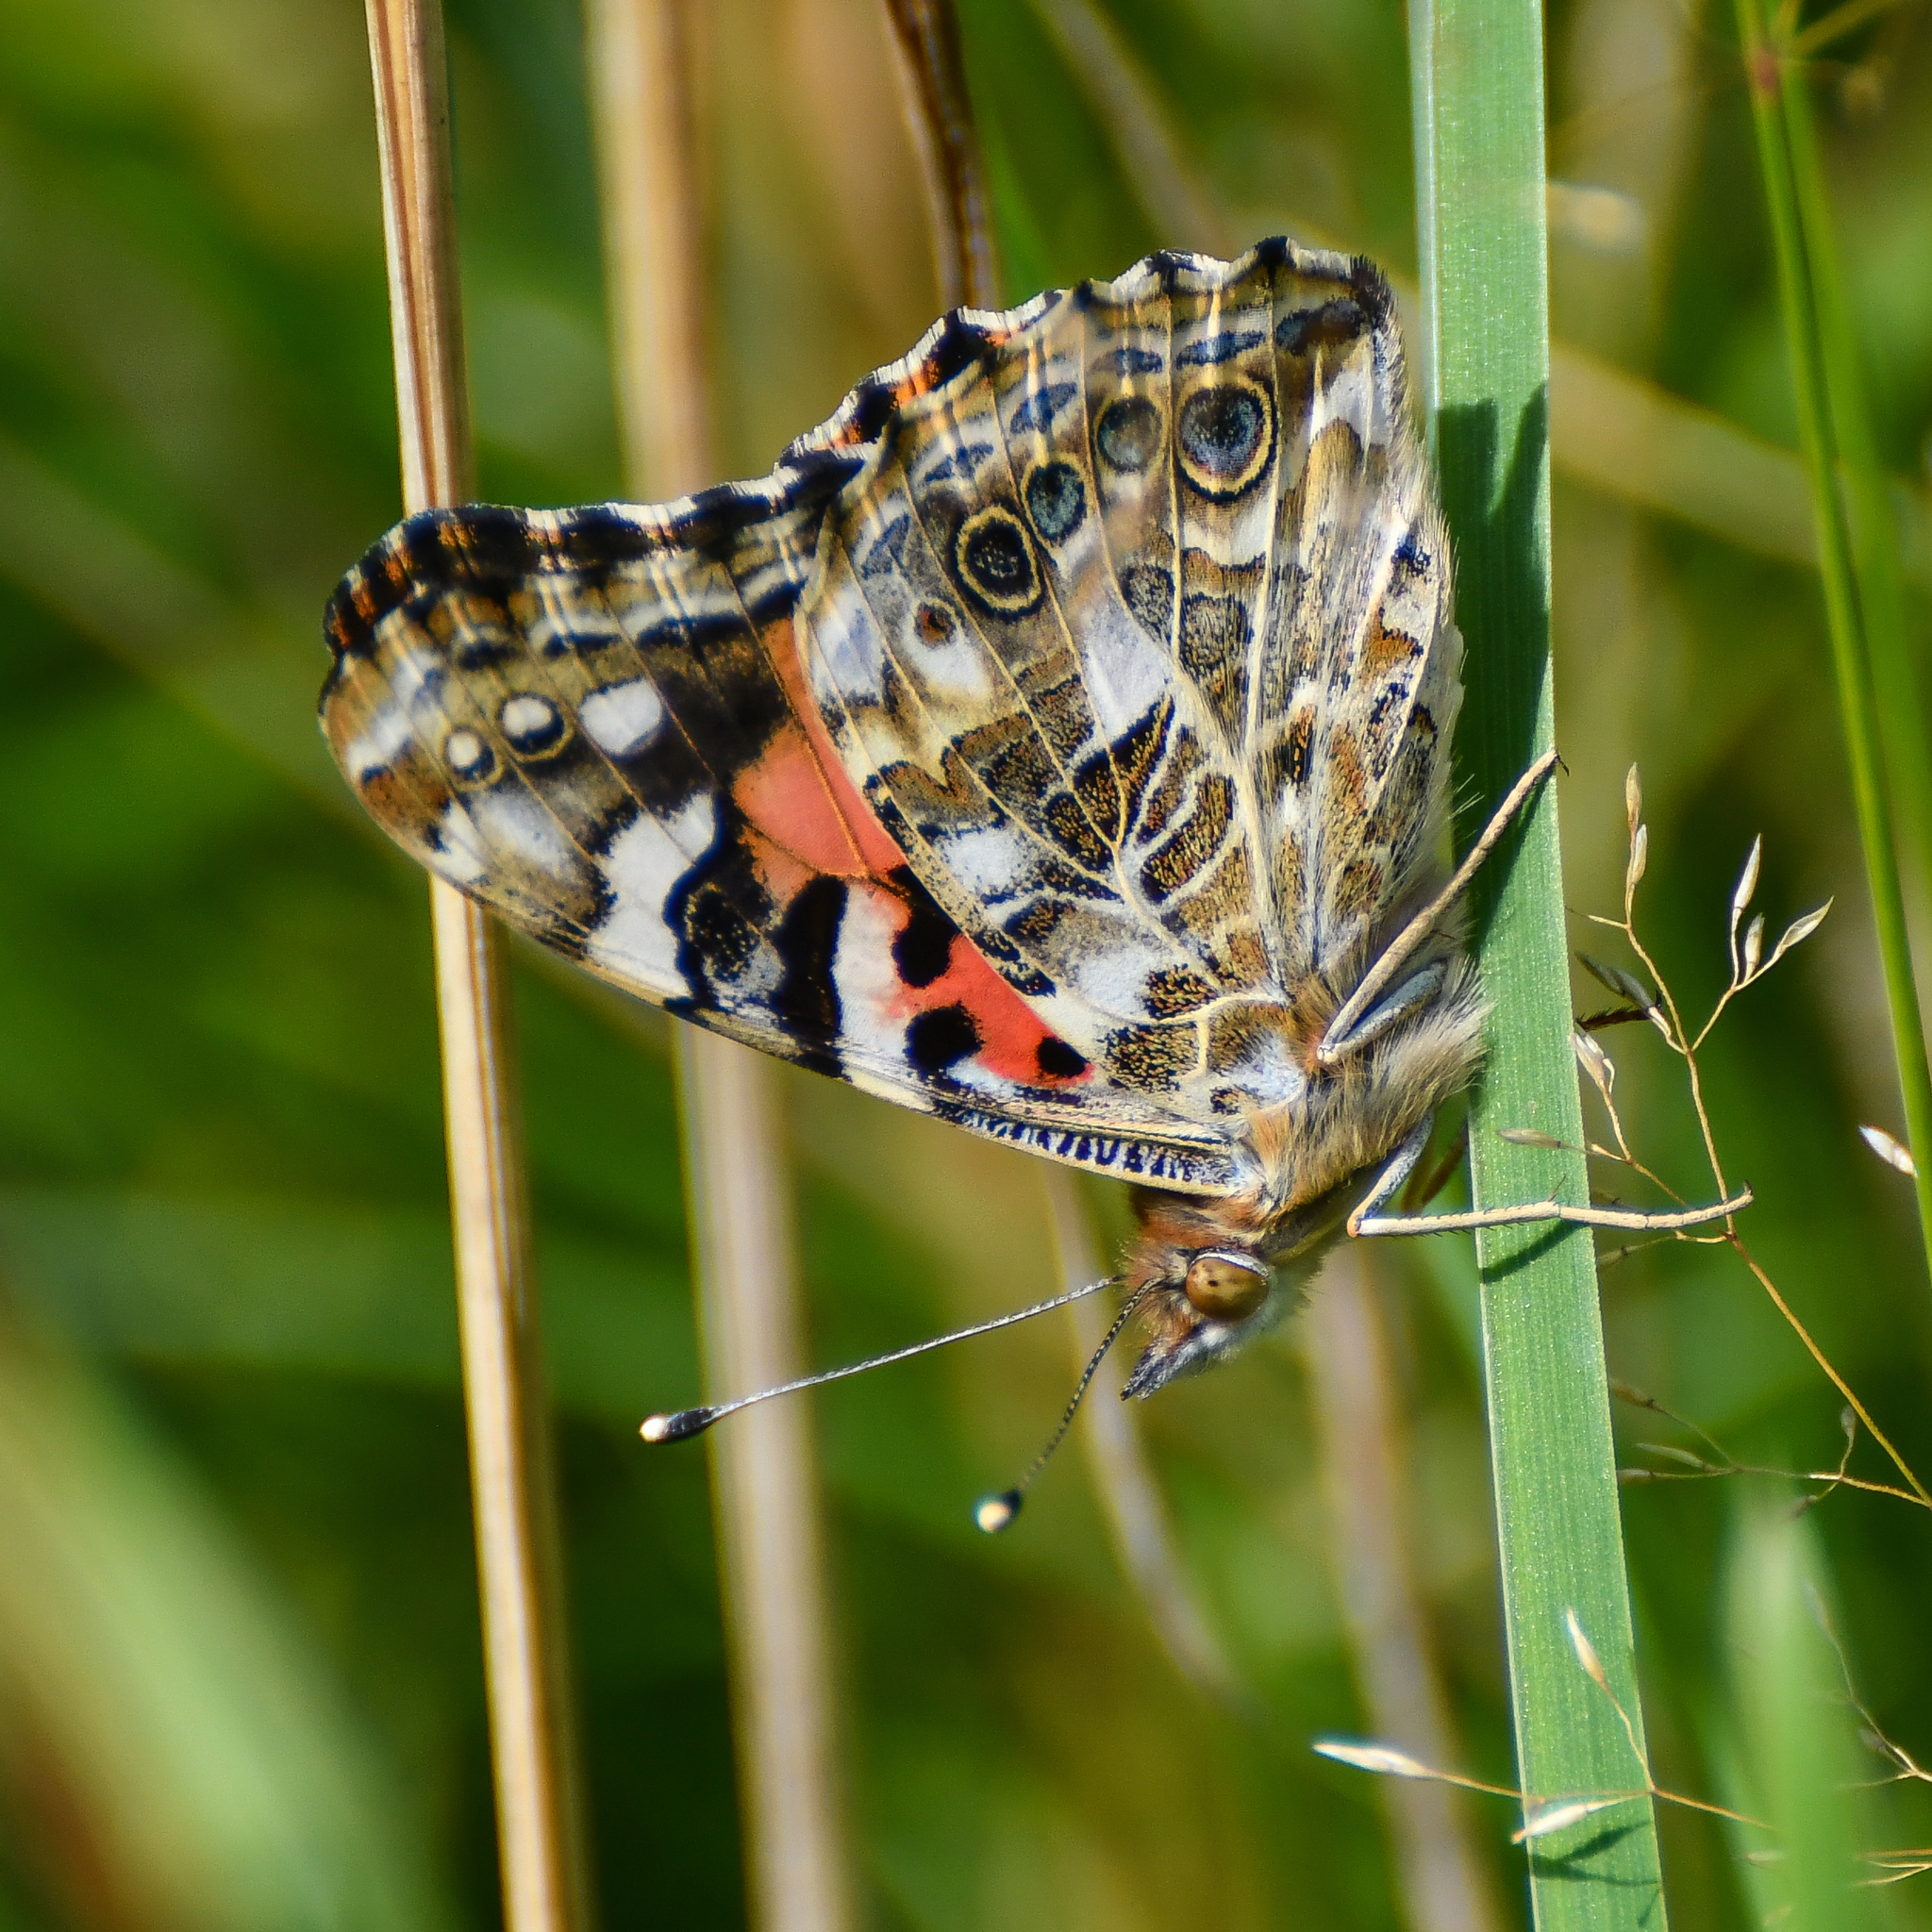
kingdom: Animalia
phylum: Arthropoda
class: Insecta
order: Lepidoptera
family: Nymphalidae
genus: Vanessa
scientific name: Vanessa cardui
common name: Painted lady
